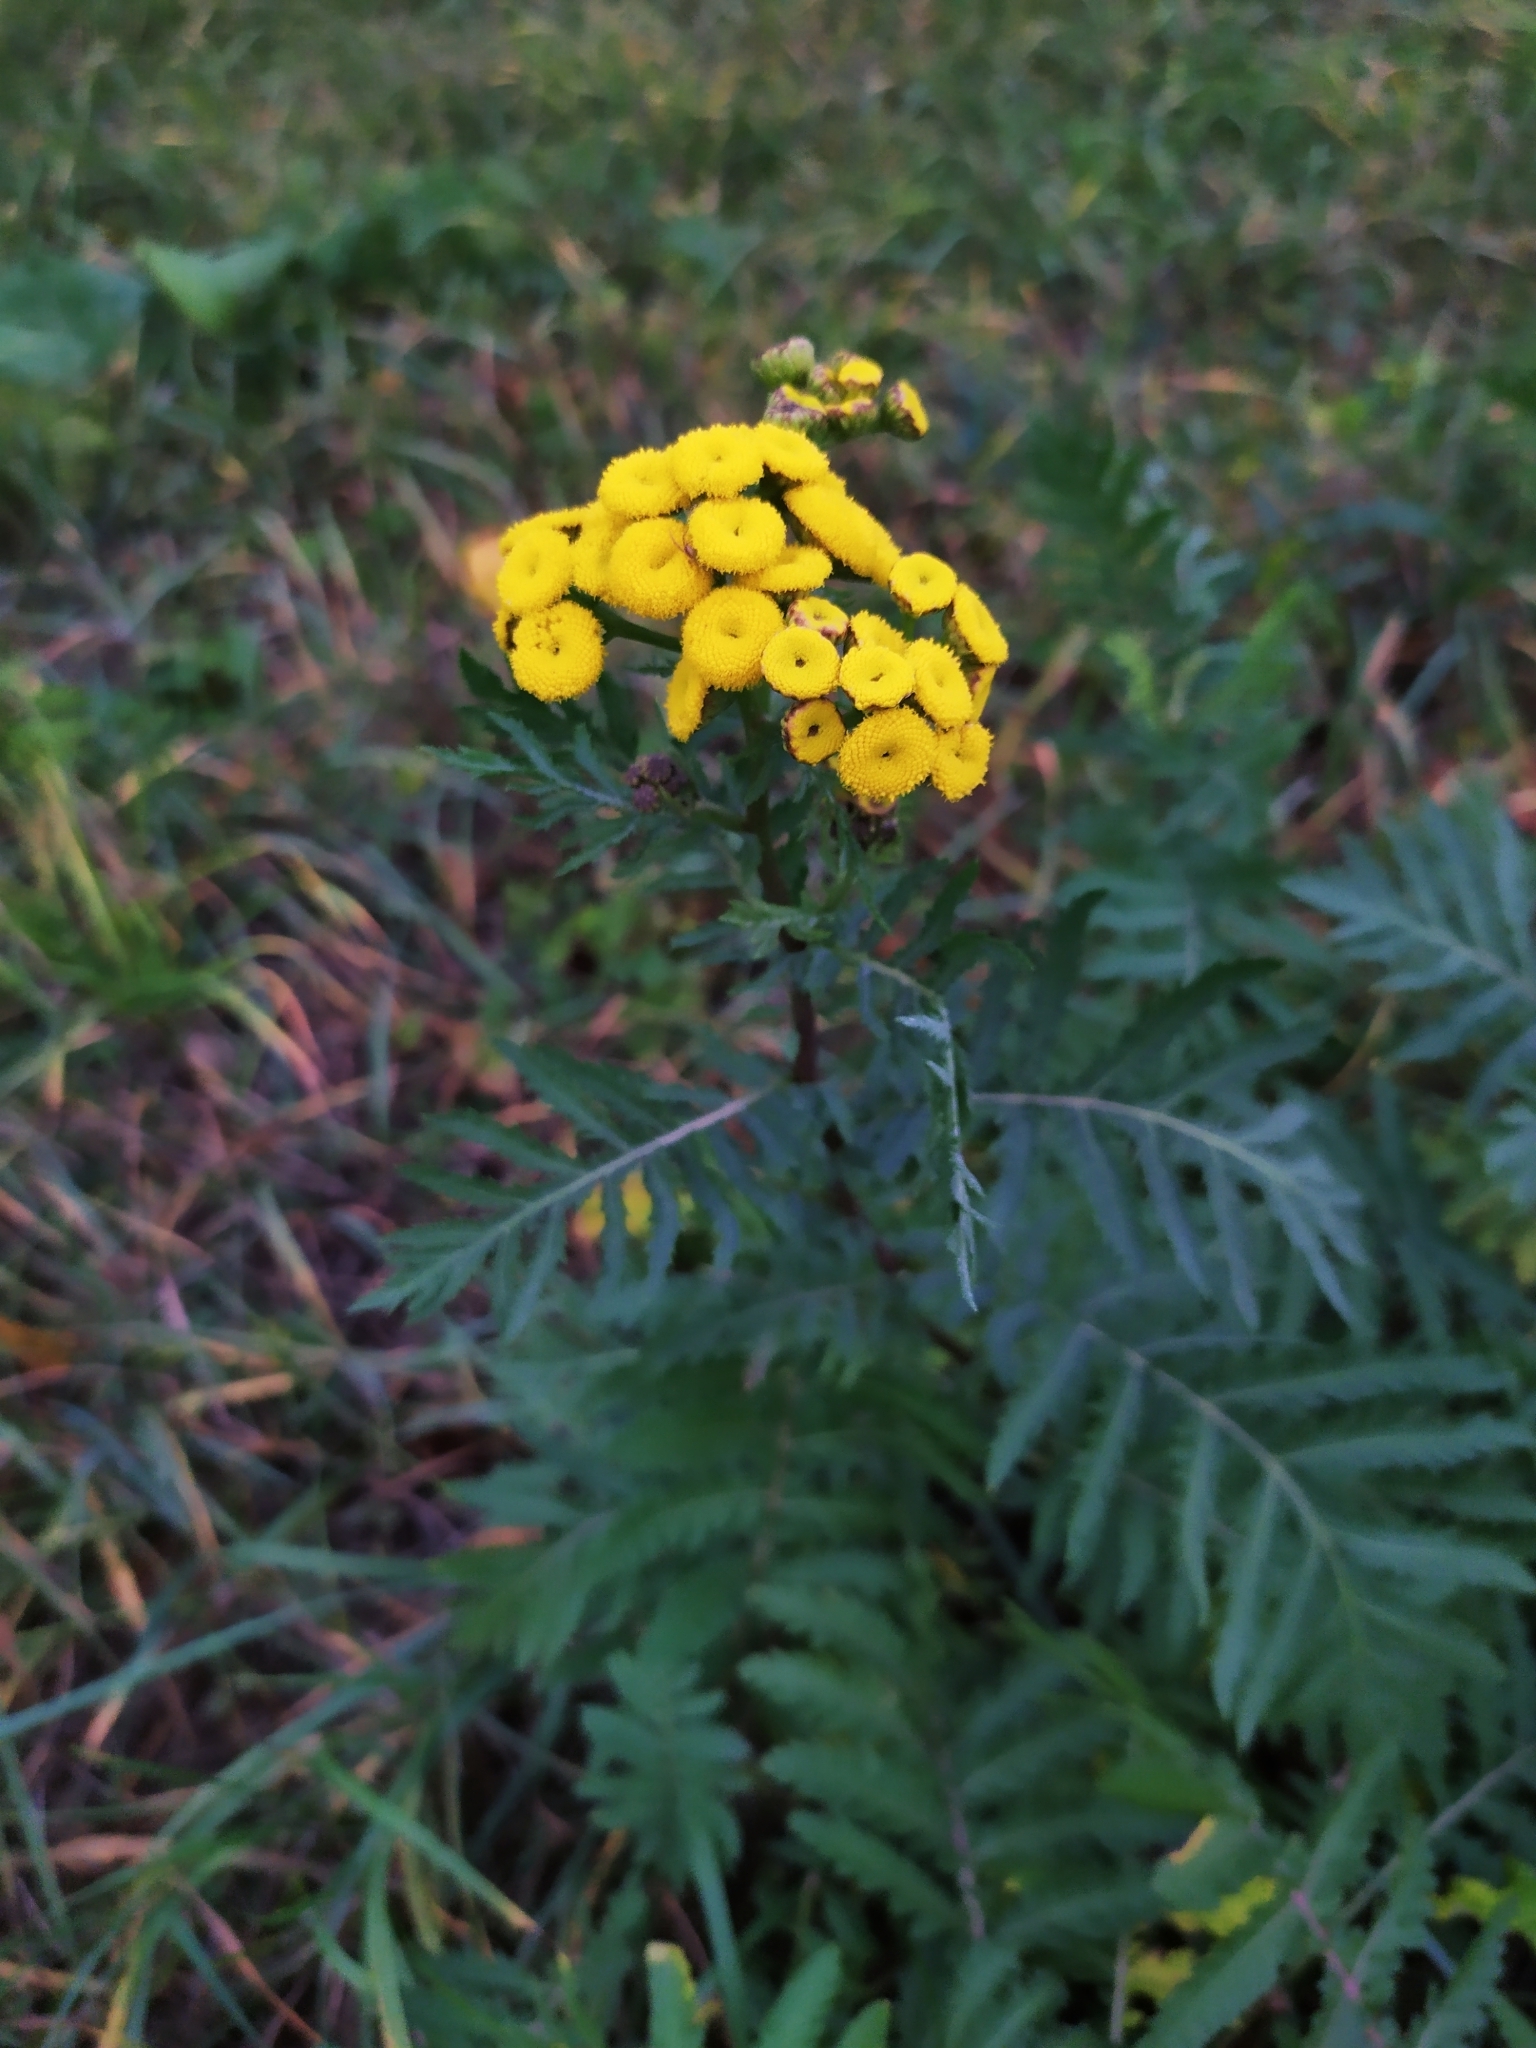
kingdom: Plantae
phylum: Tracheophyta
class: Magnoliopsida
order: Asterales
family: Asteraceae
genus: Tanacetum
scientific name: Tanacetum vulgare
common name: Common tansy
